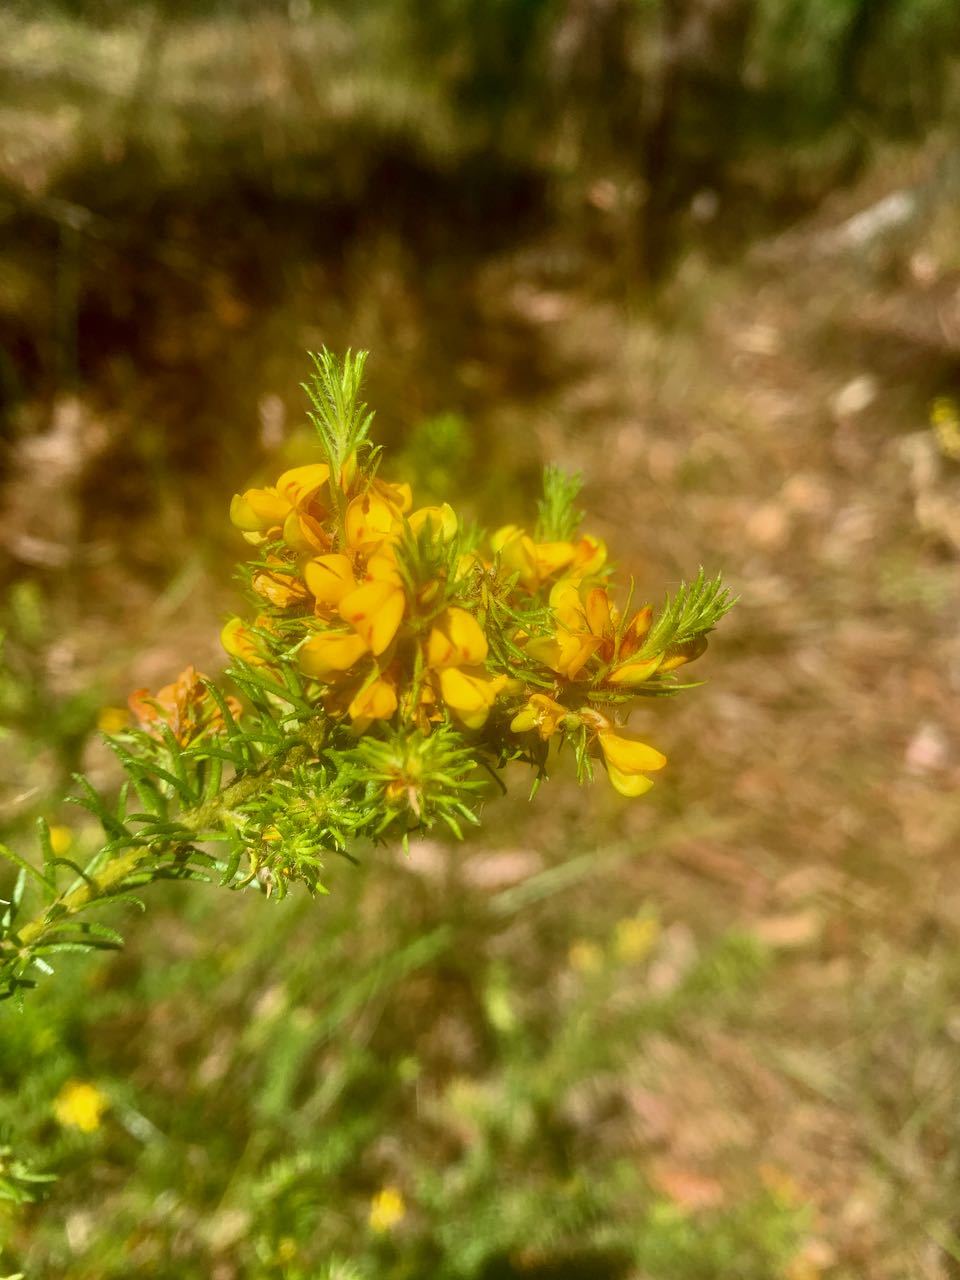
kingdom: Plantae
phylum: Tracheophyta
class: Magnoliopsida
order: Fabales
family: Fabaceae
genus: Phyllota
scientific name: Phyllota phylicoides
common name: Heath phyllota
